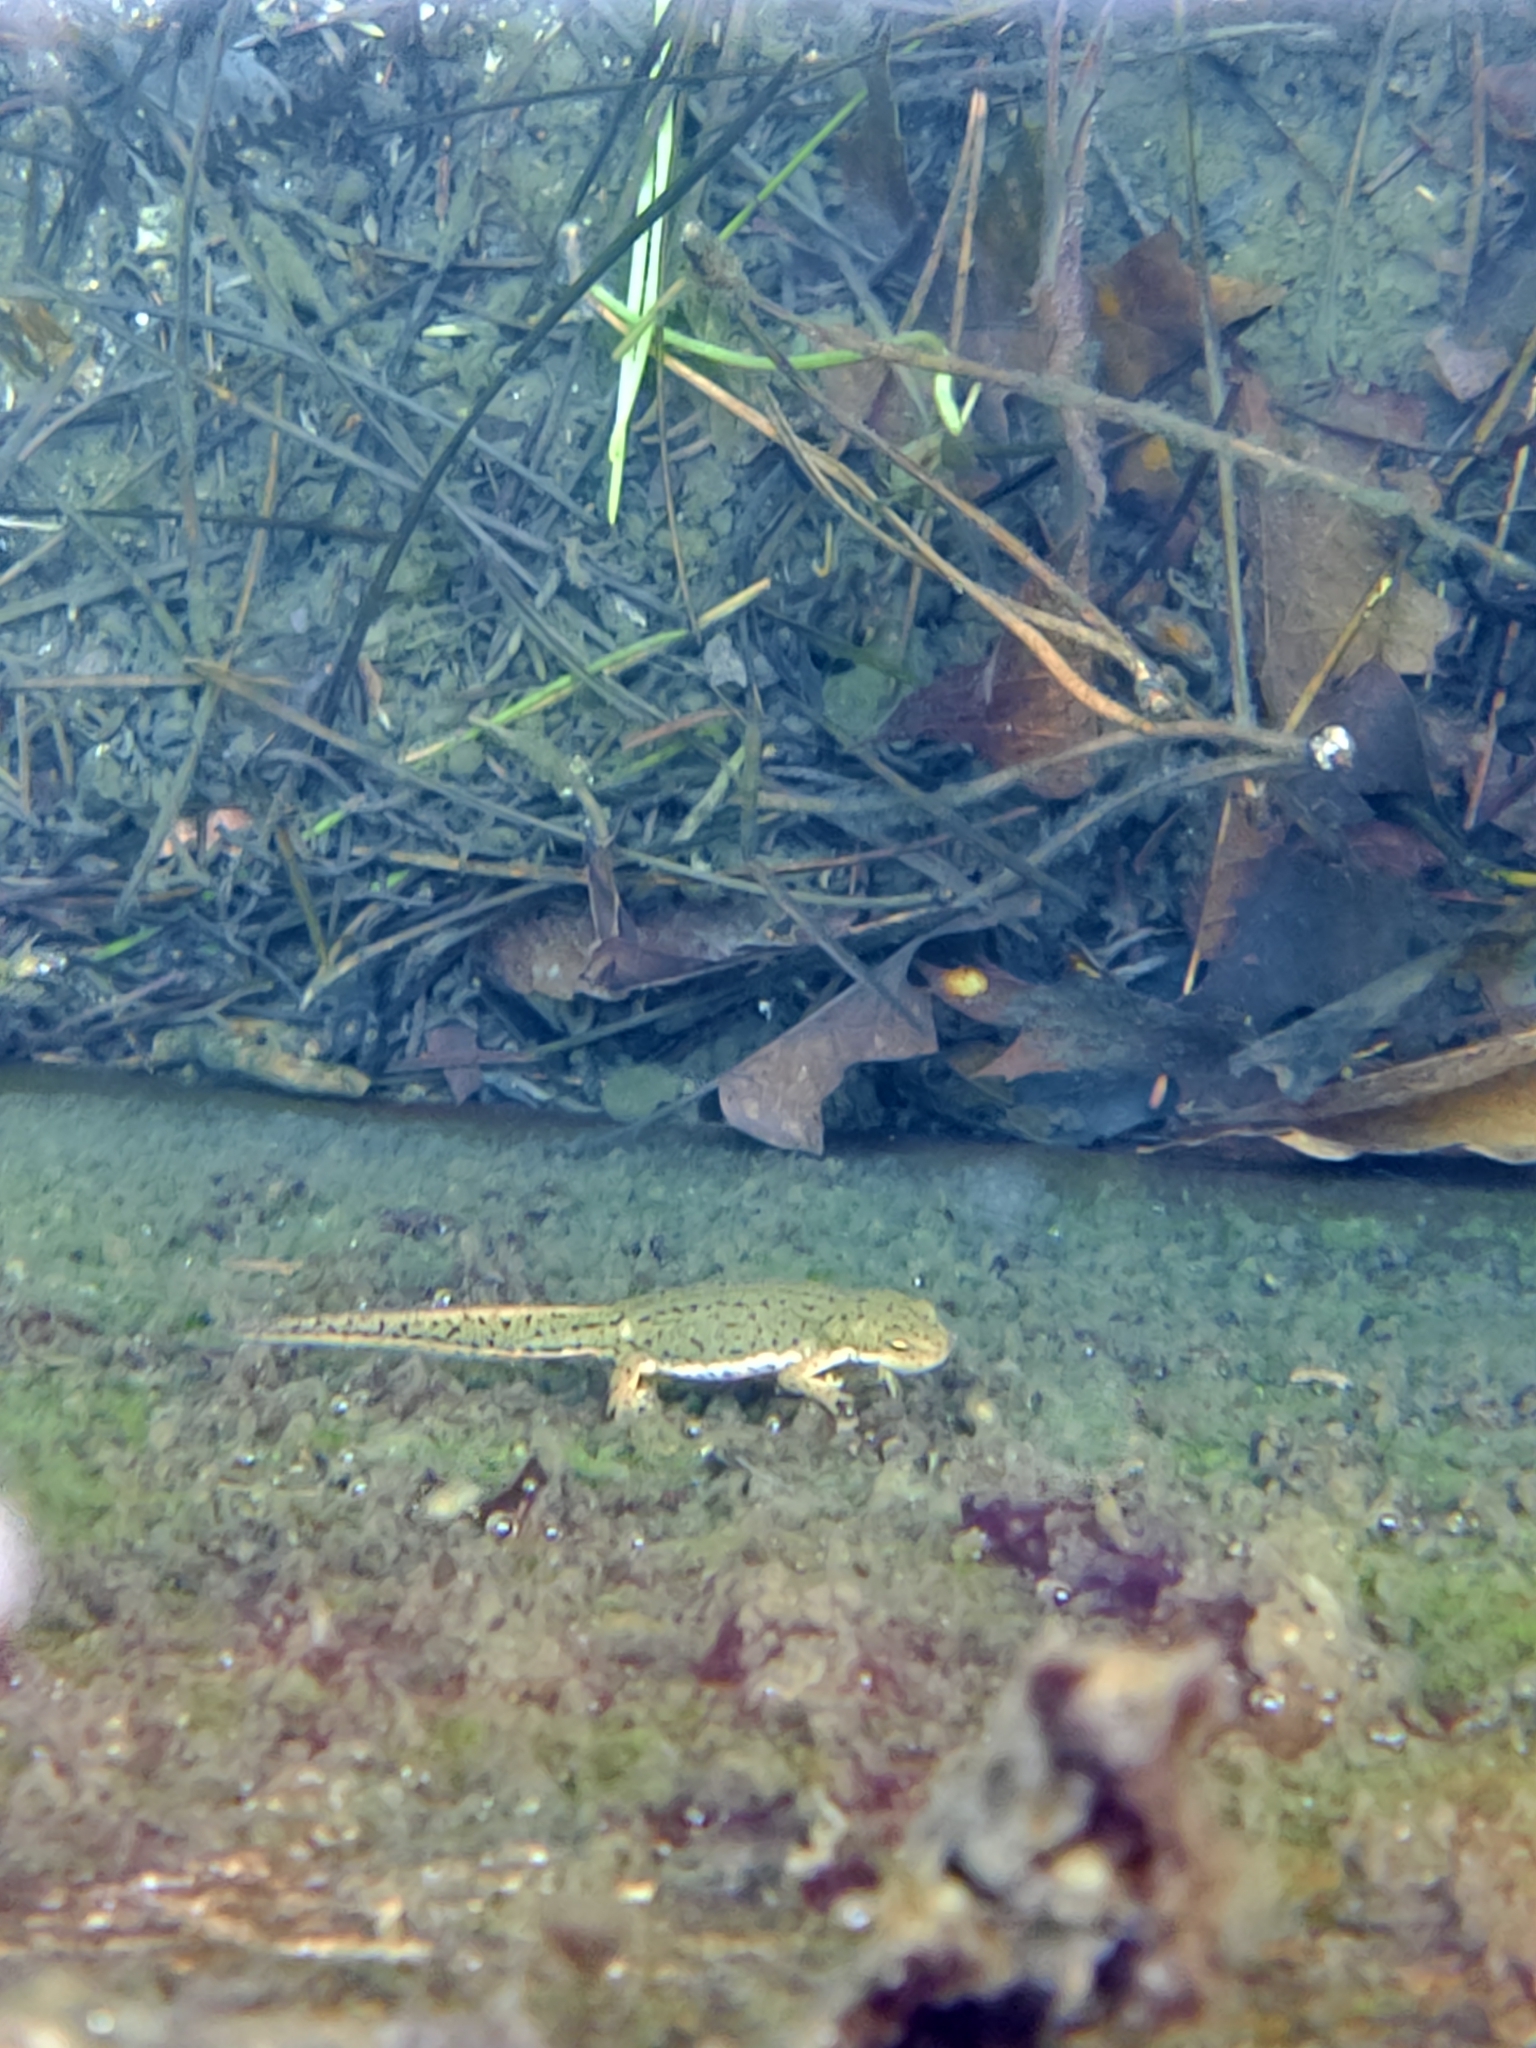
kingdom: Animalia
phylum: Chordata
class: Amphibia
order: Caudata
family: Salamandridae
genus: Lissotriton
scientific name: Lissotriton boscai
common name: Bosca's newt
